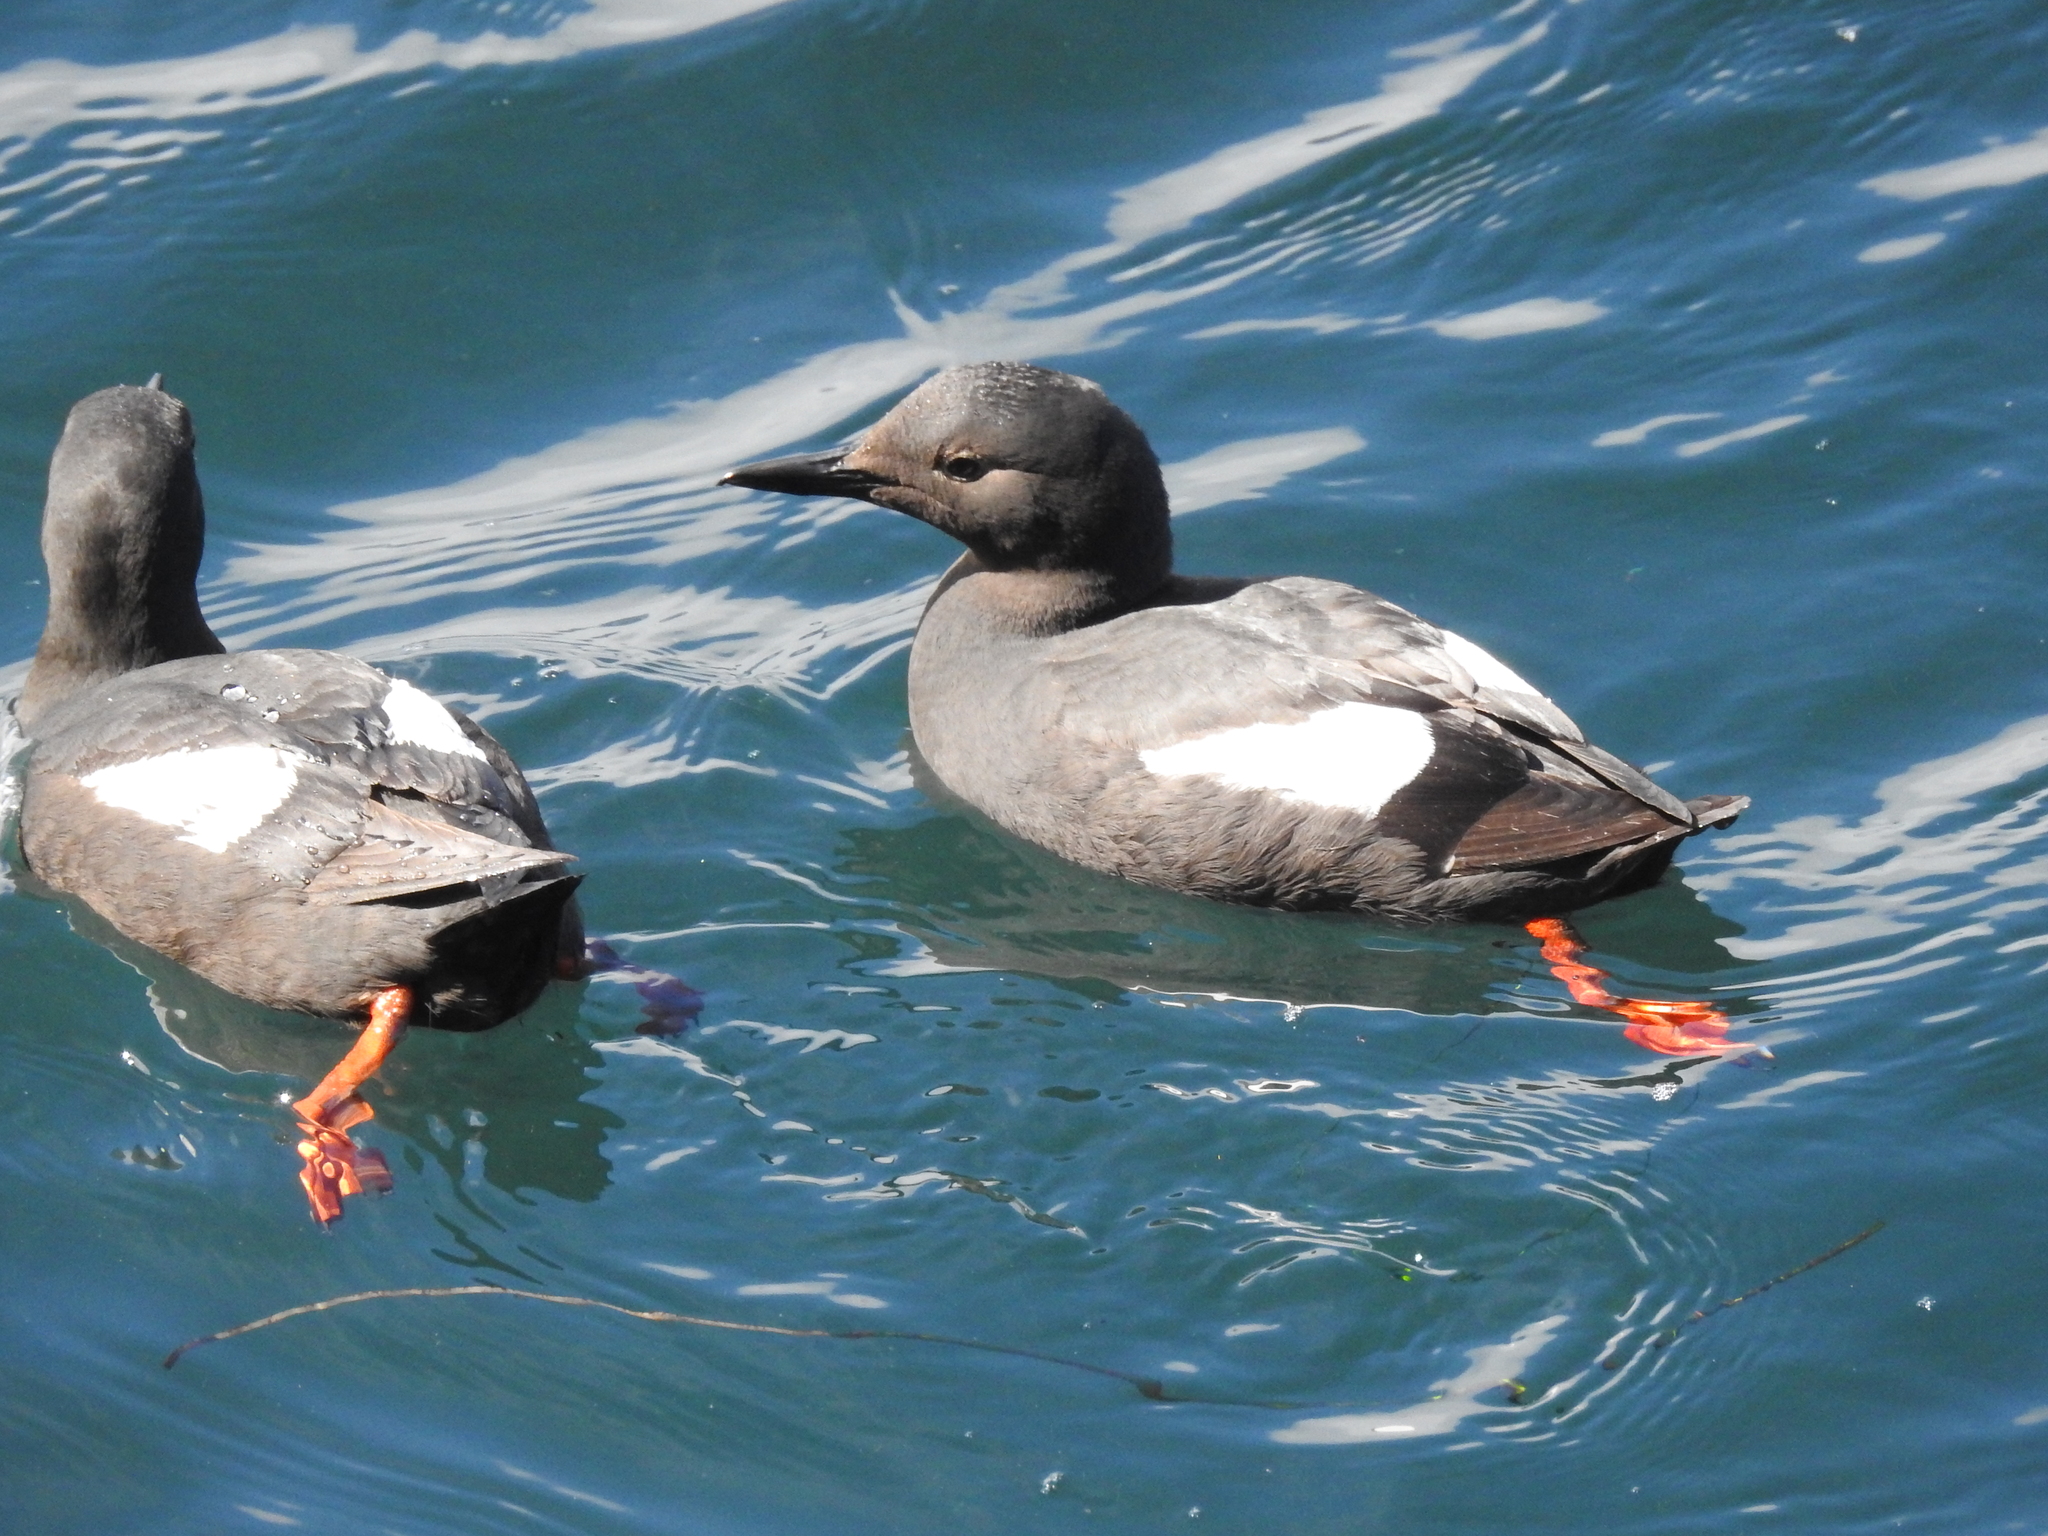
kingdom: Animalia
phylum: Chordata
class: Aves
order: Charadriiformes
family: Alcidae
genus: Cepphus
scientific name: Cepphus columba
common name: Pigeon guillemot
